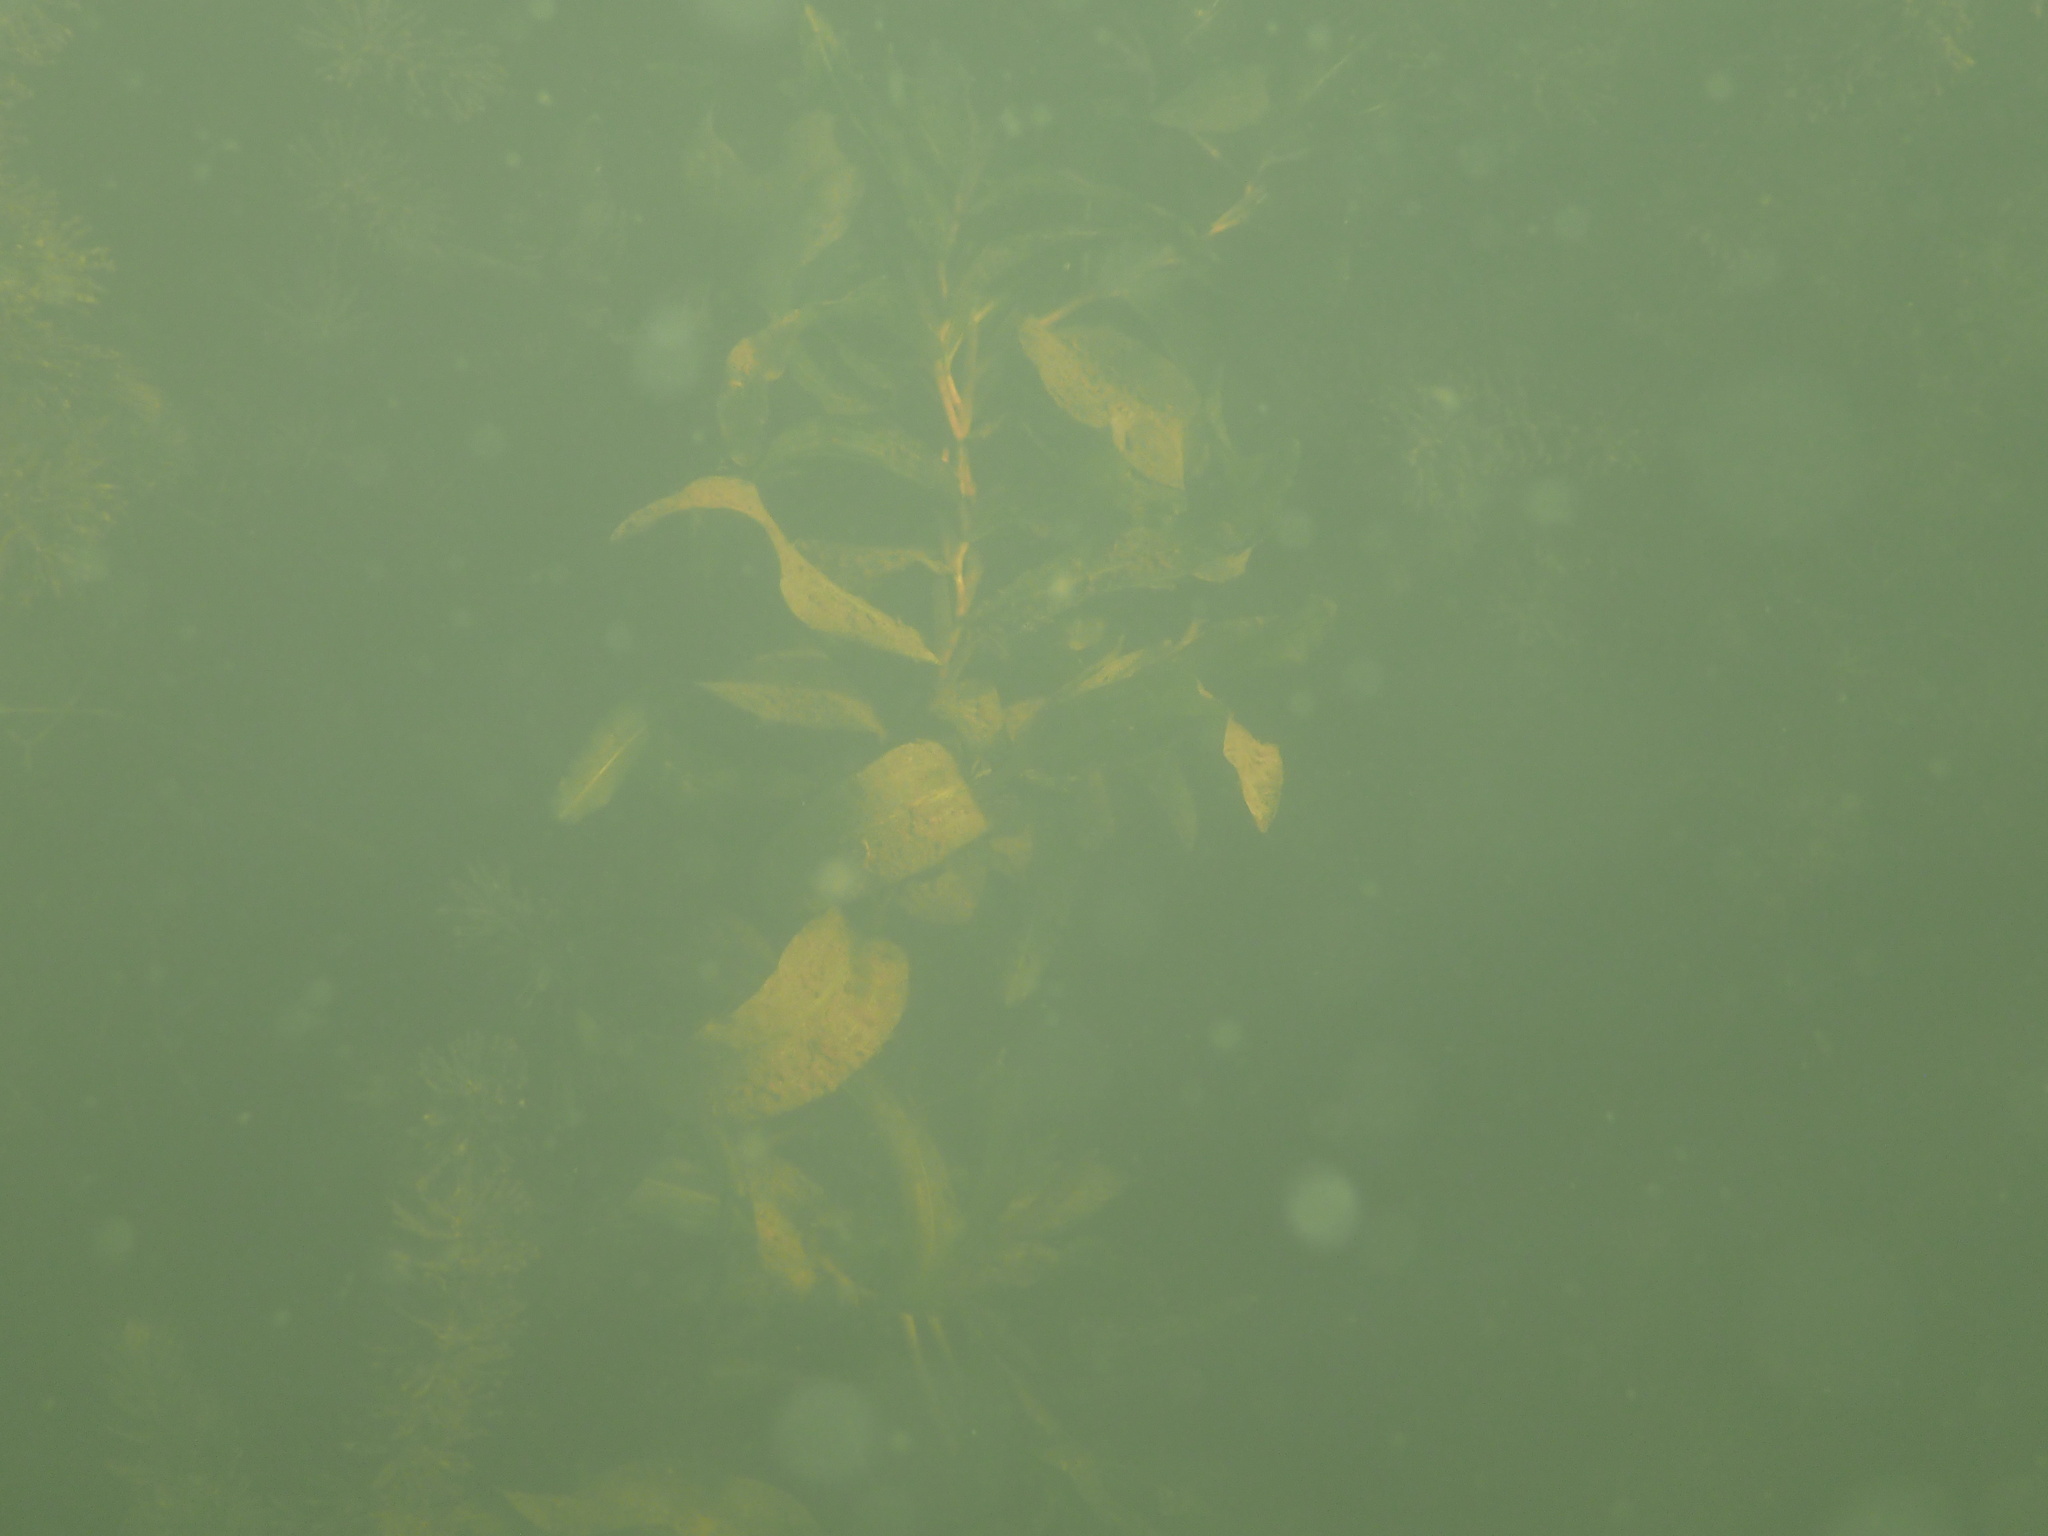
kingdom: Plantae
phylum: Tracheophyta
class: Liliopsida
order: Alismatales
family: Potamogetonaceae
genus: Potamogeton
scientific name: Potamogeton praelongus
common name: Long-stalked pondweed
